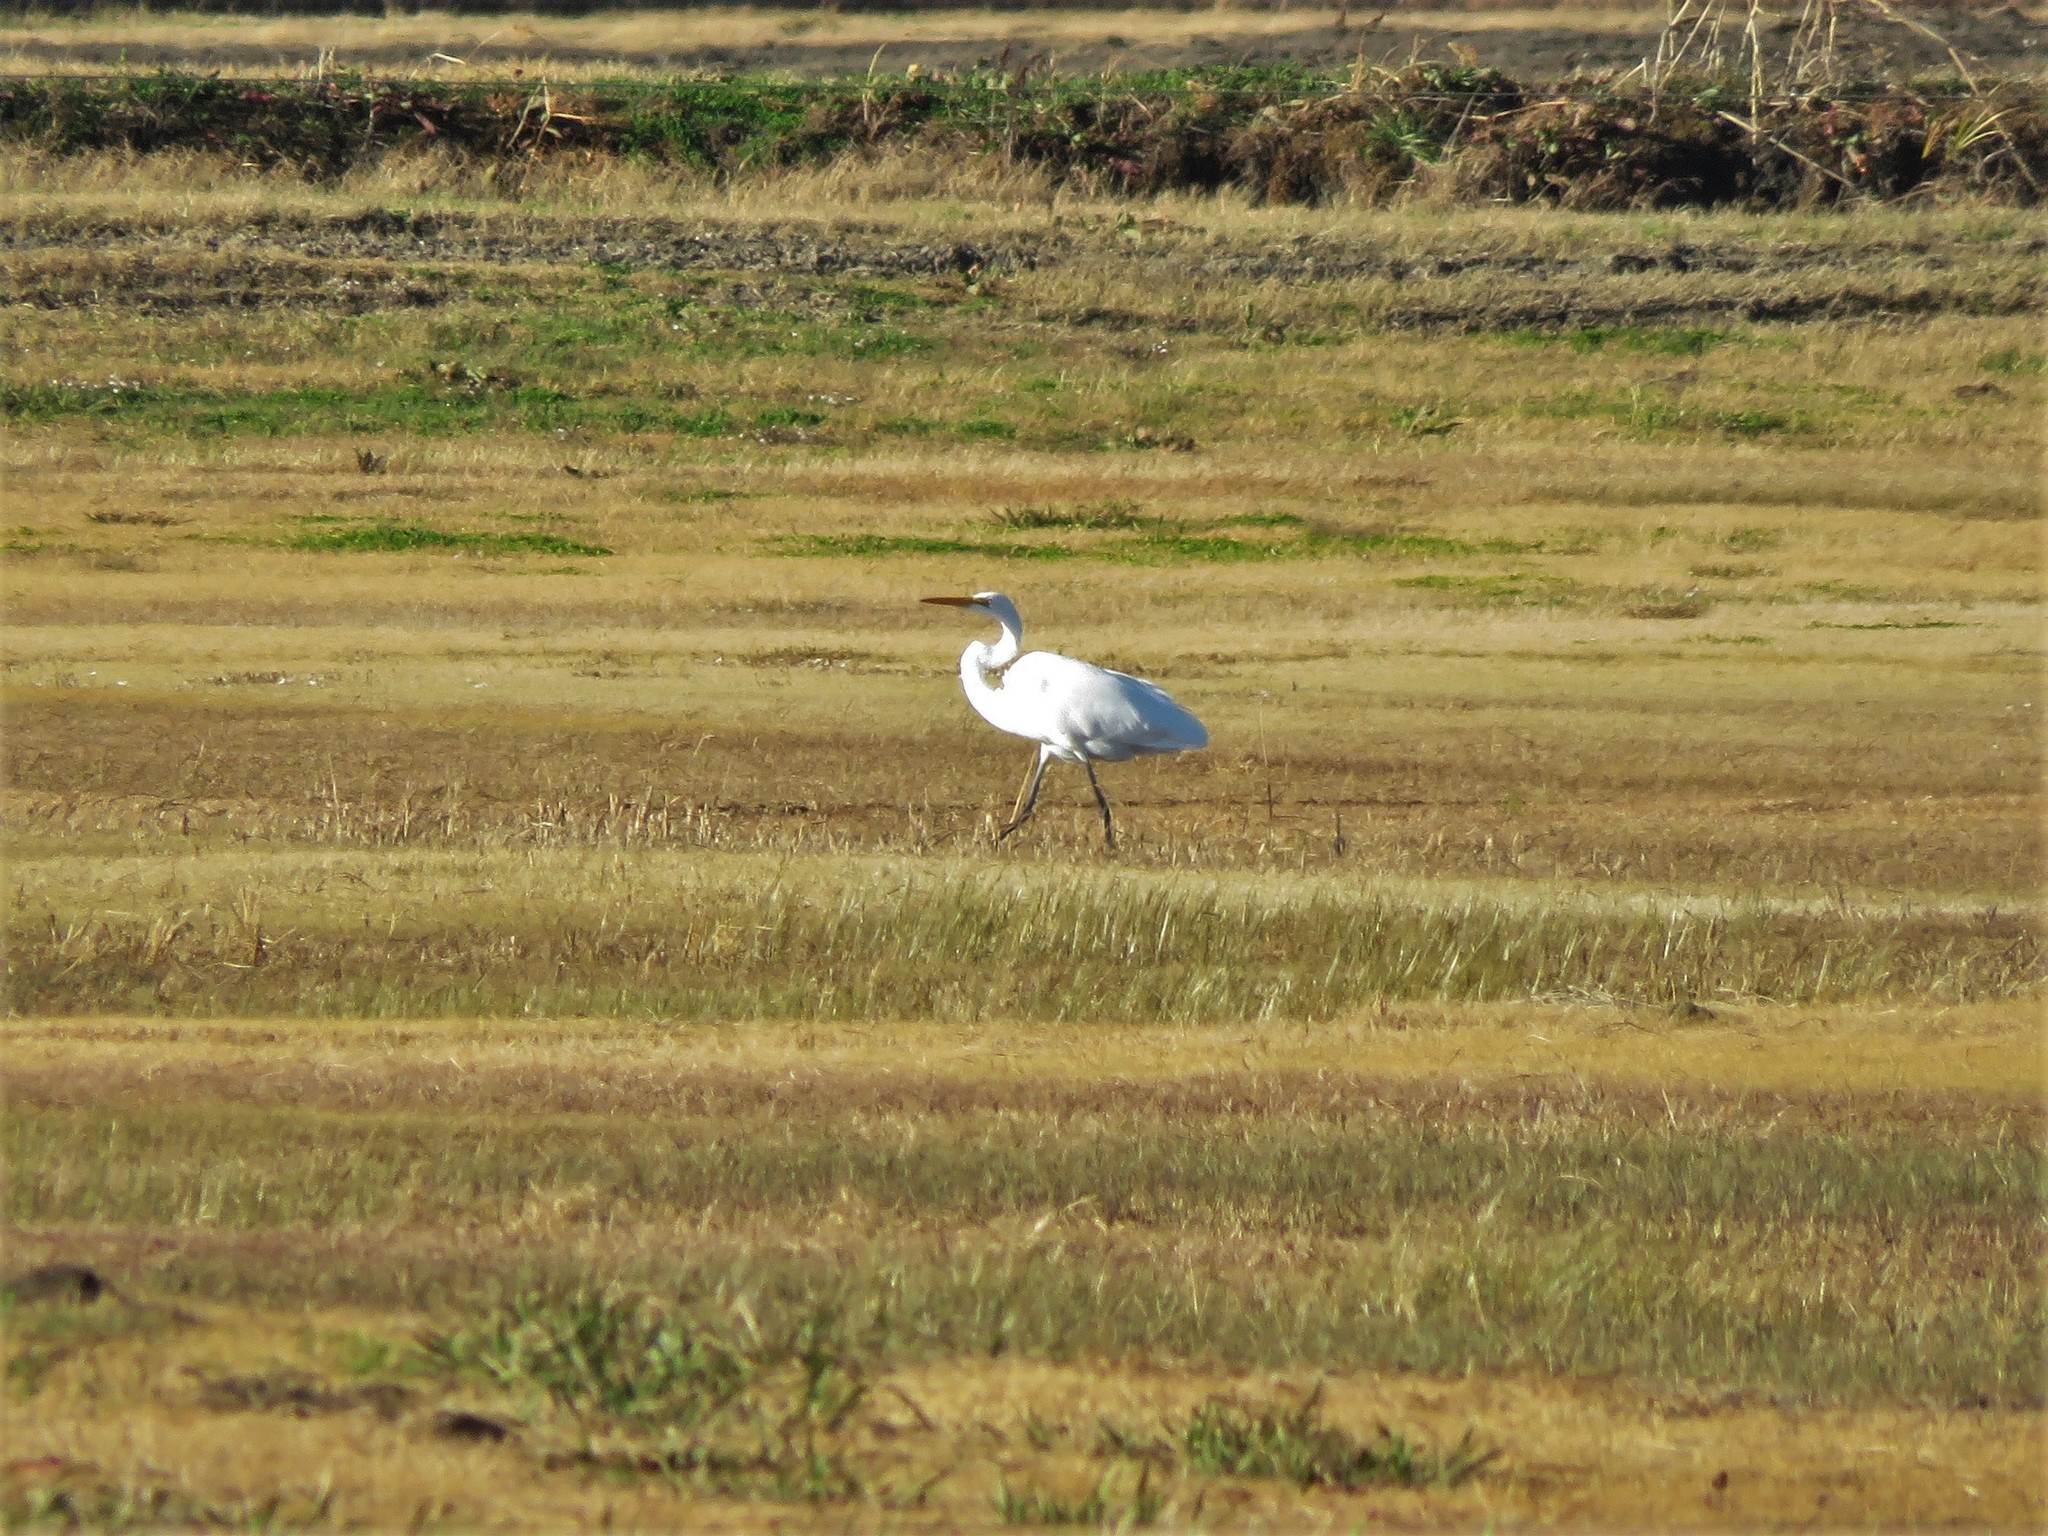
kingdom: Animalia
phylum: Chordata
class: Aves
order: Pelecaniformes
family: Ardeidae
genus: Ardea
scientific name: Ardea alba
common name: Great egret
